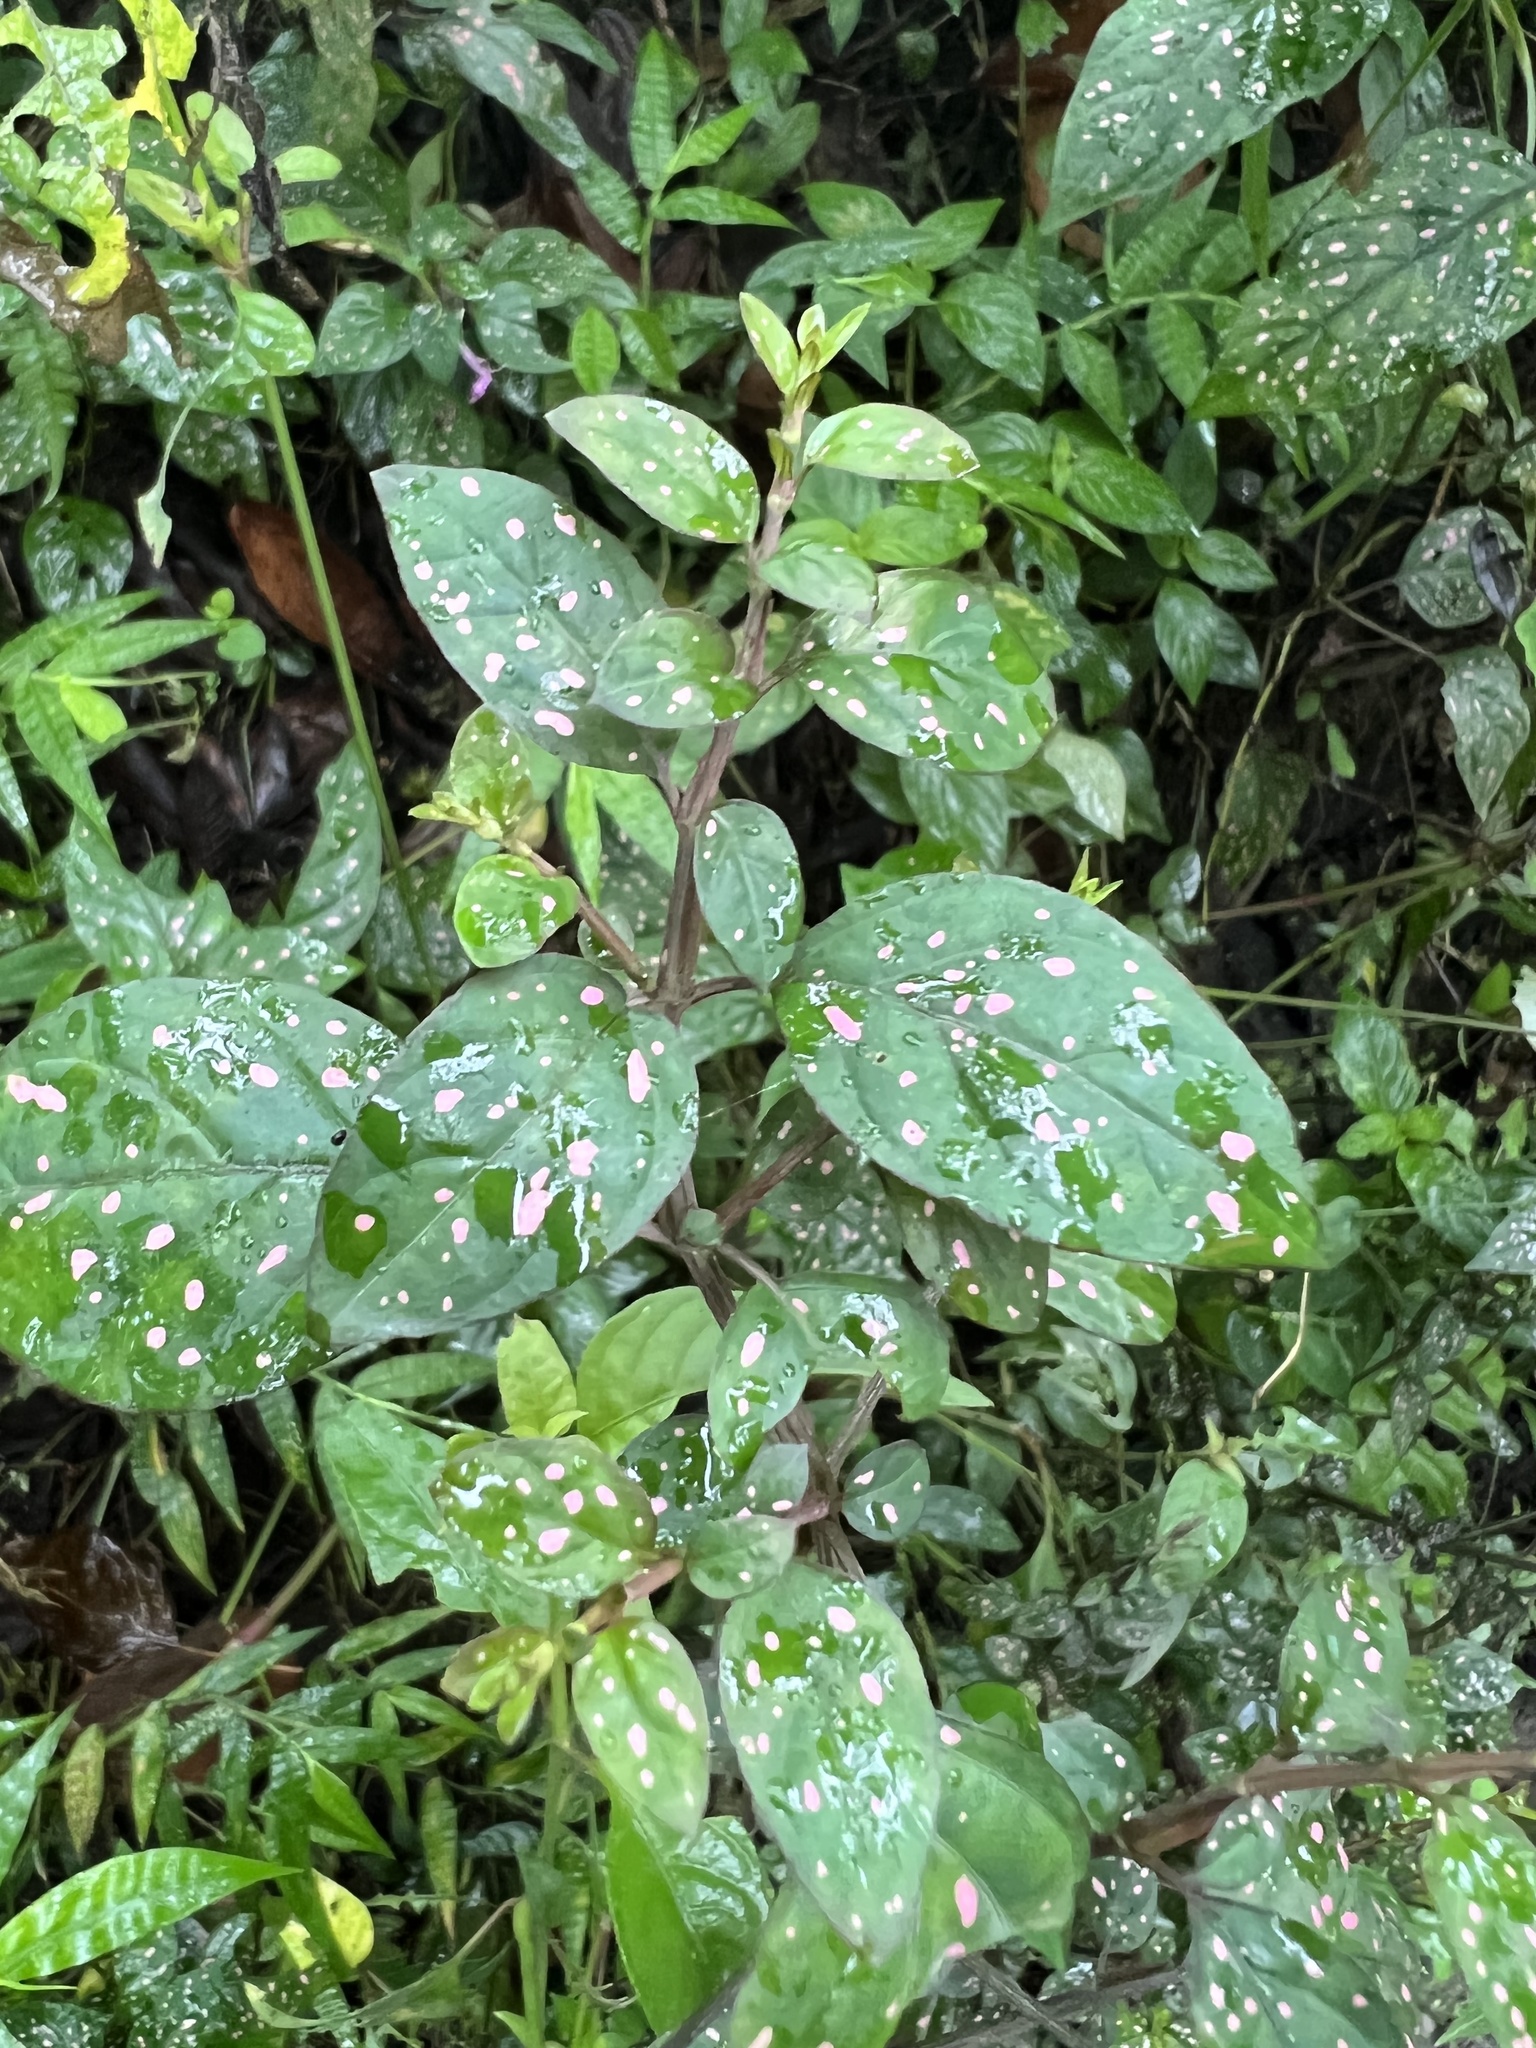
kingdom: Plantae
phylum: Tracheophyta
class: Magnoliopsida
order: Lamiales
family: Acanthaceae
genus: Hypoestes
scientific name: Hypoestes phyllostachya
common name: Polkadot-plant
